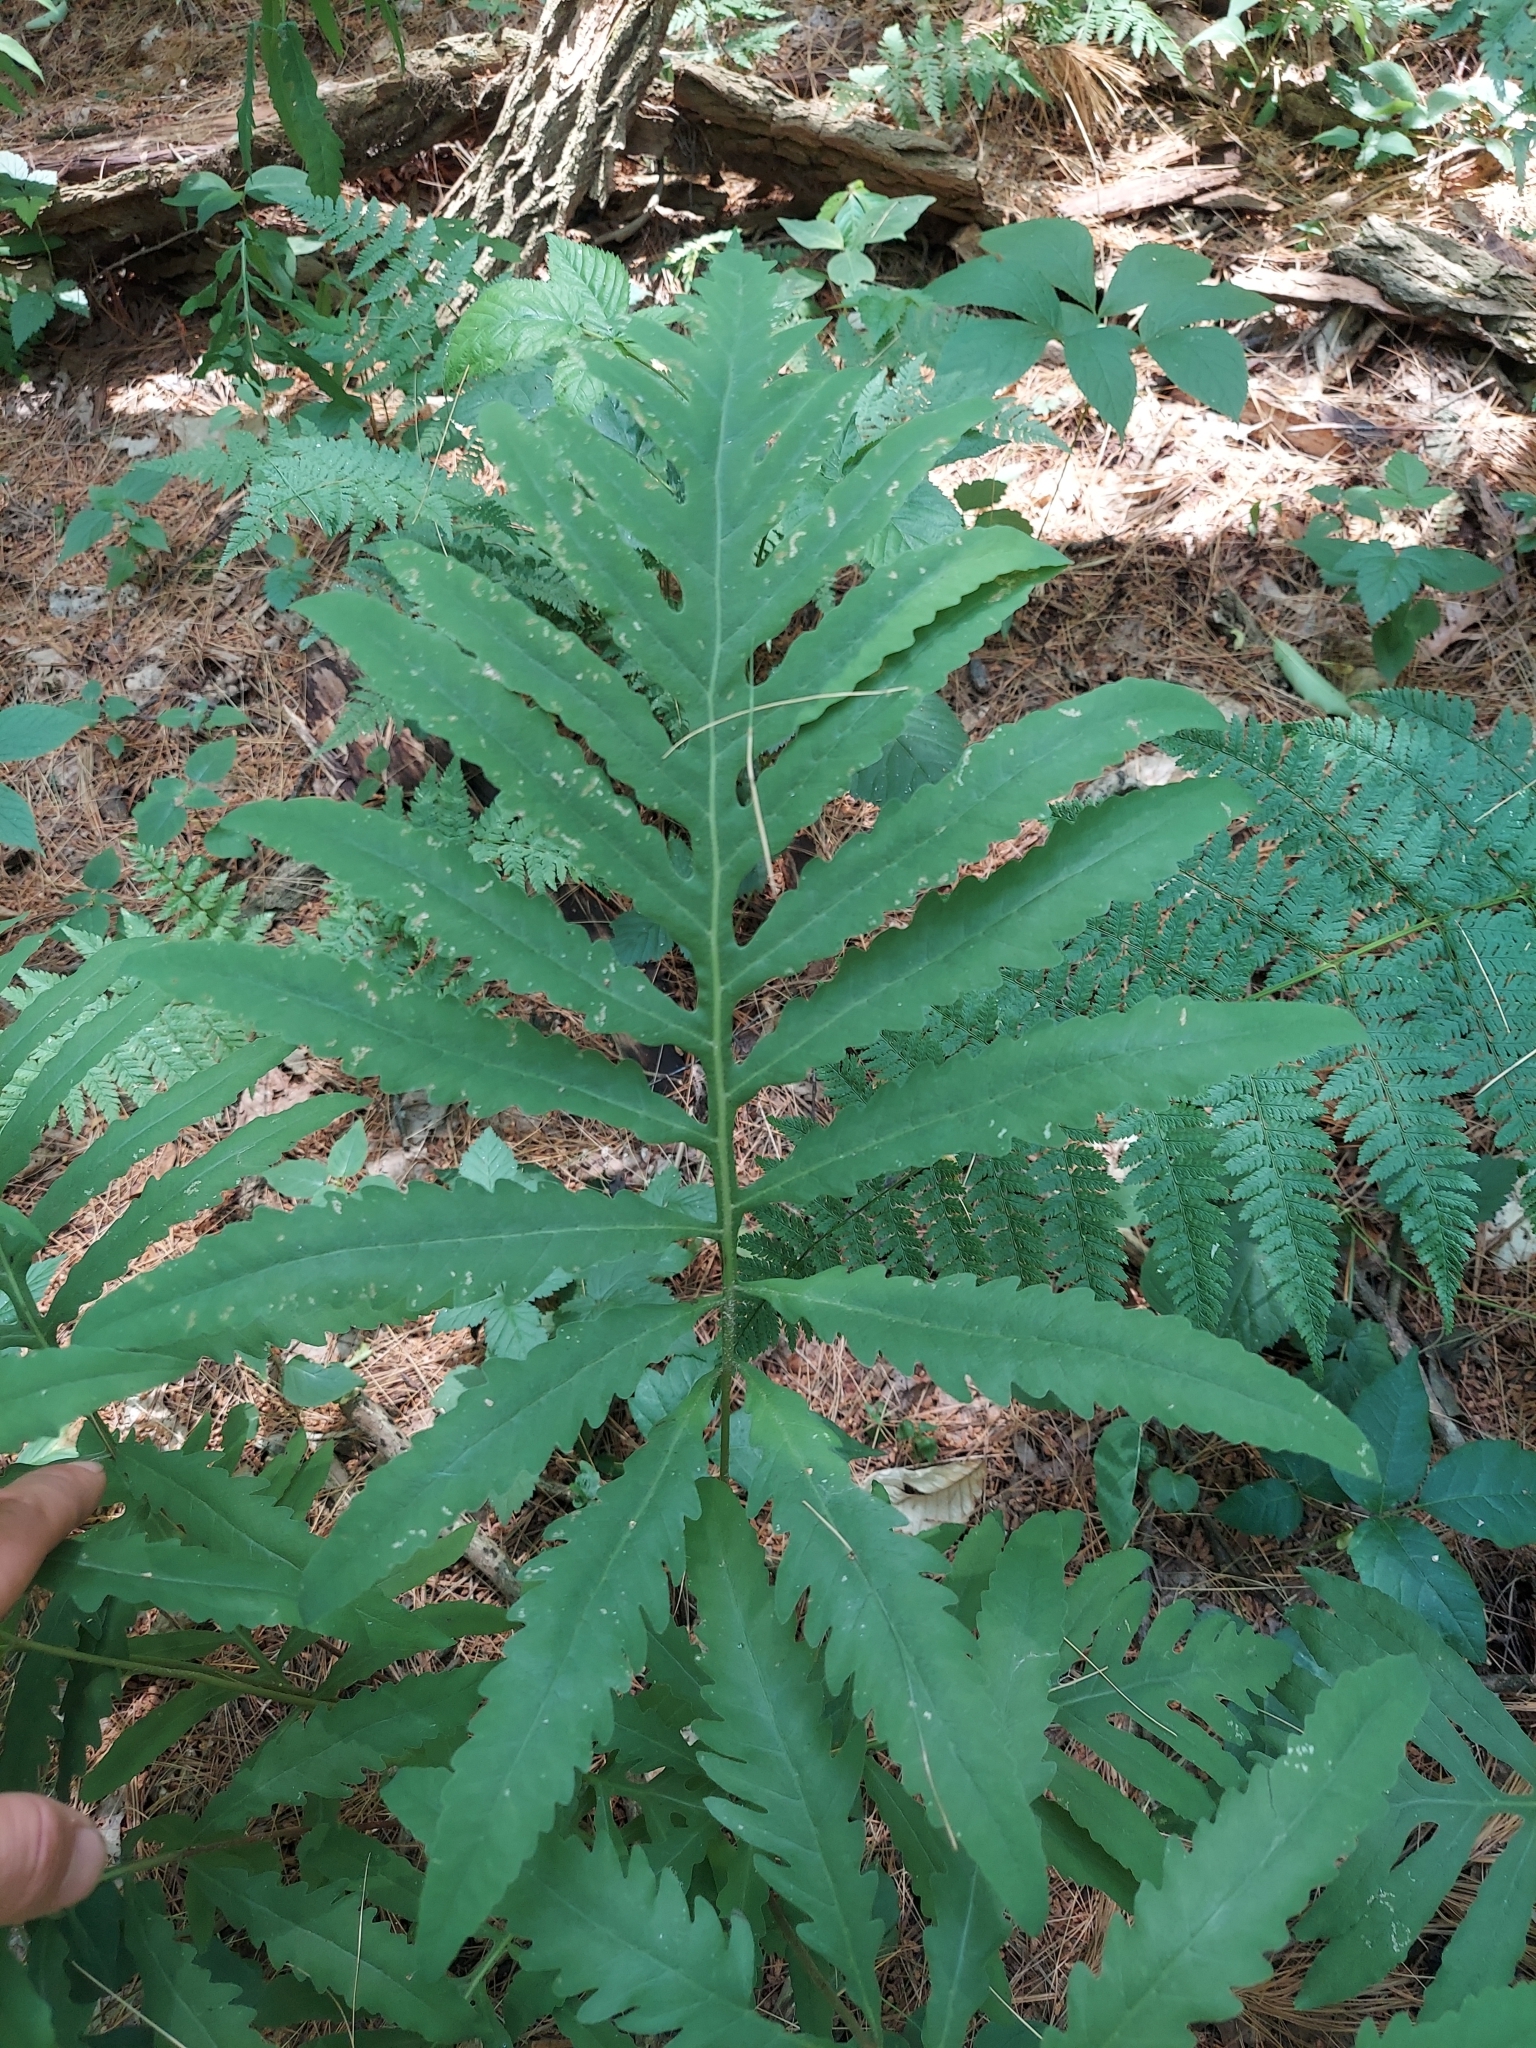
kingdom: Plantae
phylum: Tracheophyta
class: Polypodiopsida
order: Polypodiales
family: Onocleaceae
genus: Onoclea
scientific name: Onoclea sensibilis
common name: Sensitive fern
